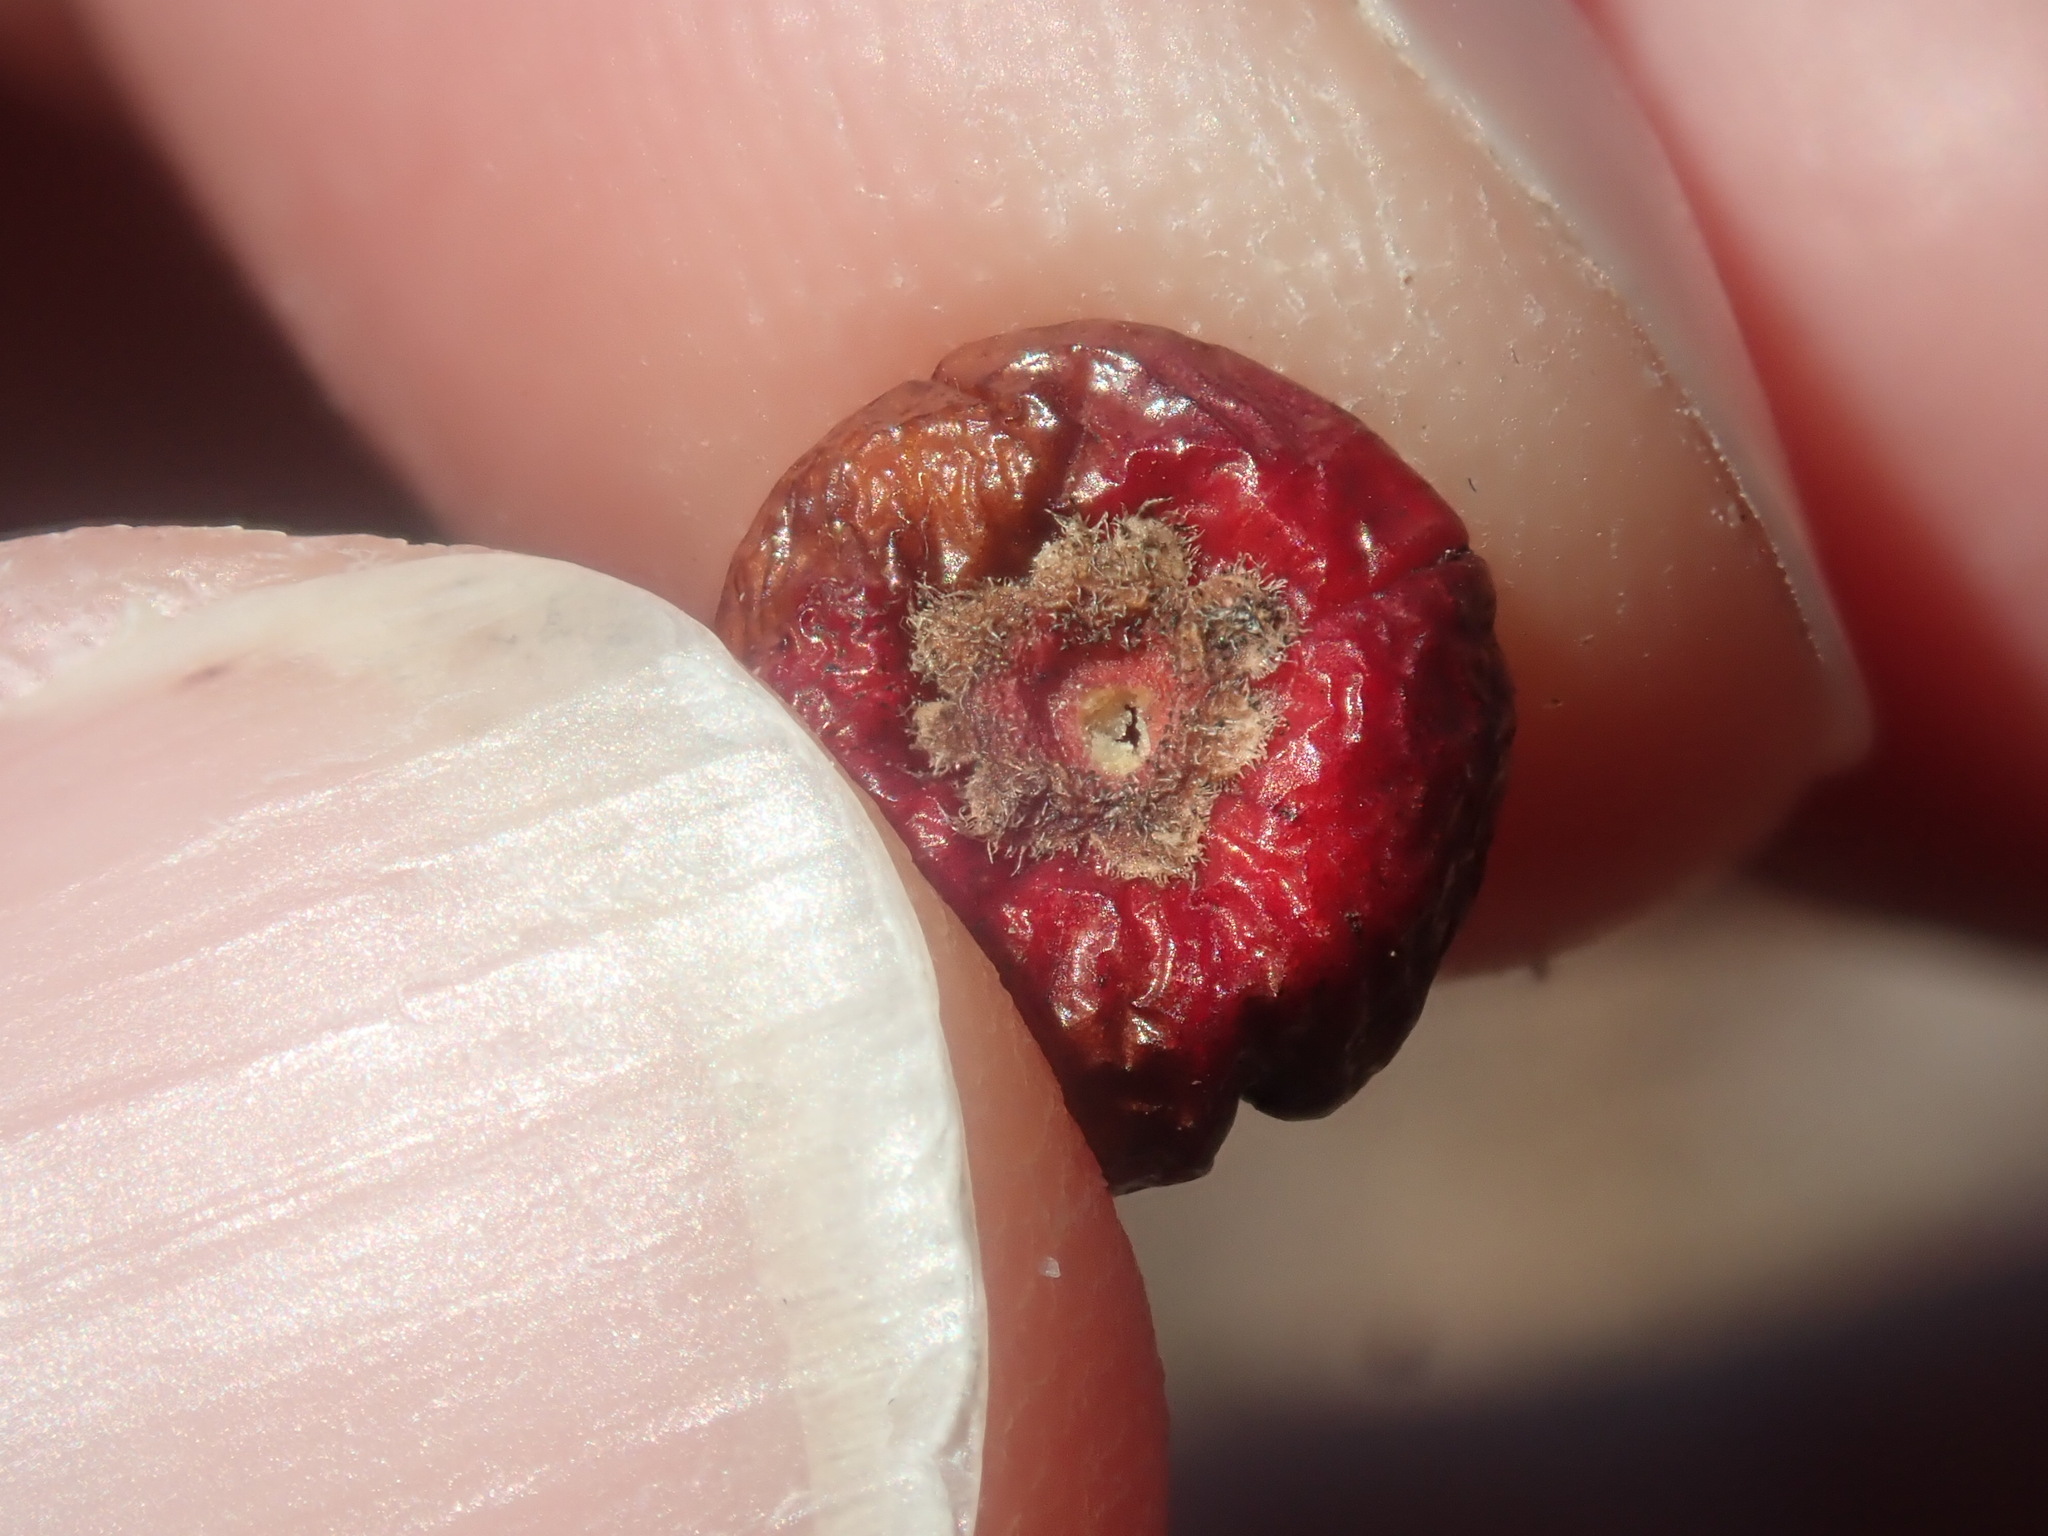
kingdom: Plantae
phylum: Tracheophyta
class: Magnoliopsida
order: Aquifoliales
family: Aquifoliaceae
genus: Ilex
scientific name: Ilex verticillata
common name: Virginia winterberry
